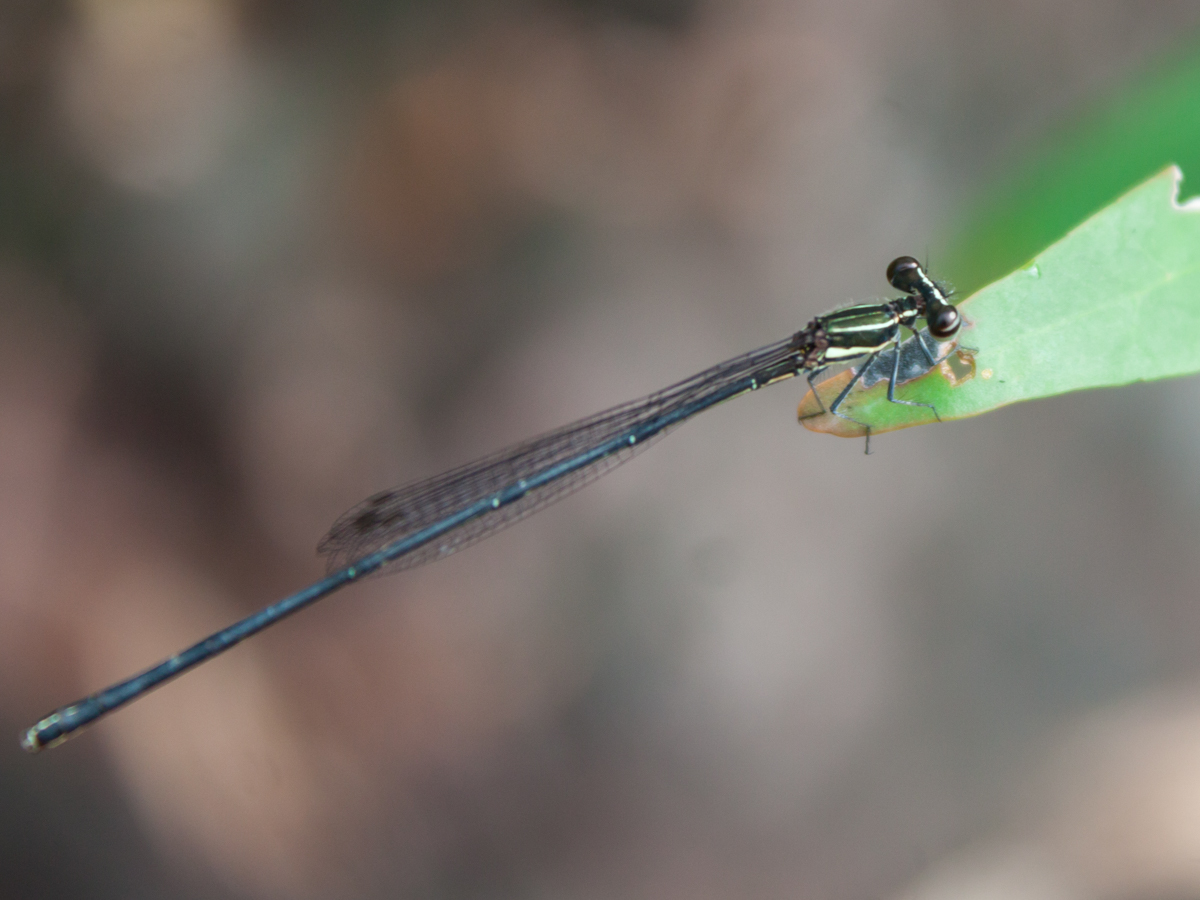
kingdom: Animalia
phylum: Arthropoda
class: Insecta
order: Odonata
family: Platycnemididae
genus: Prodasineura
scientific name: Prodasineura autumnalis
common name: Black threadtail
